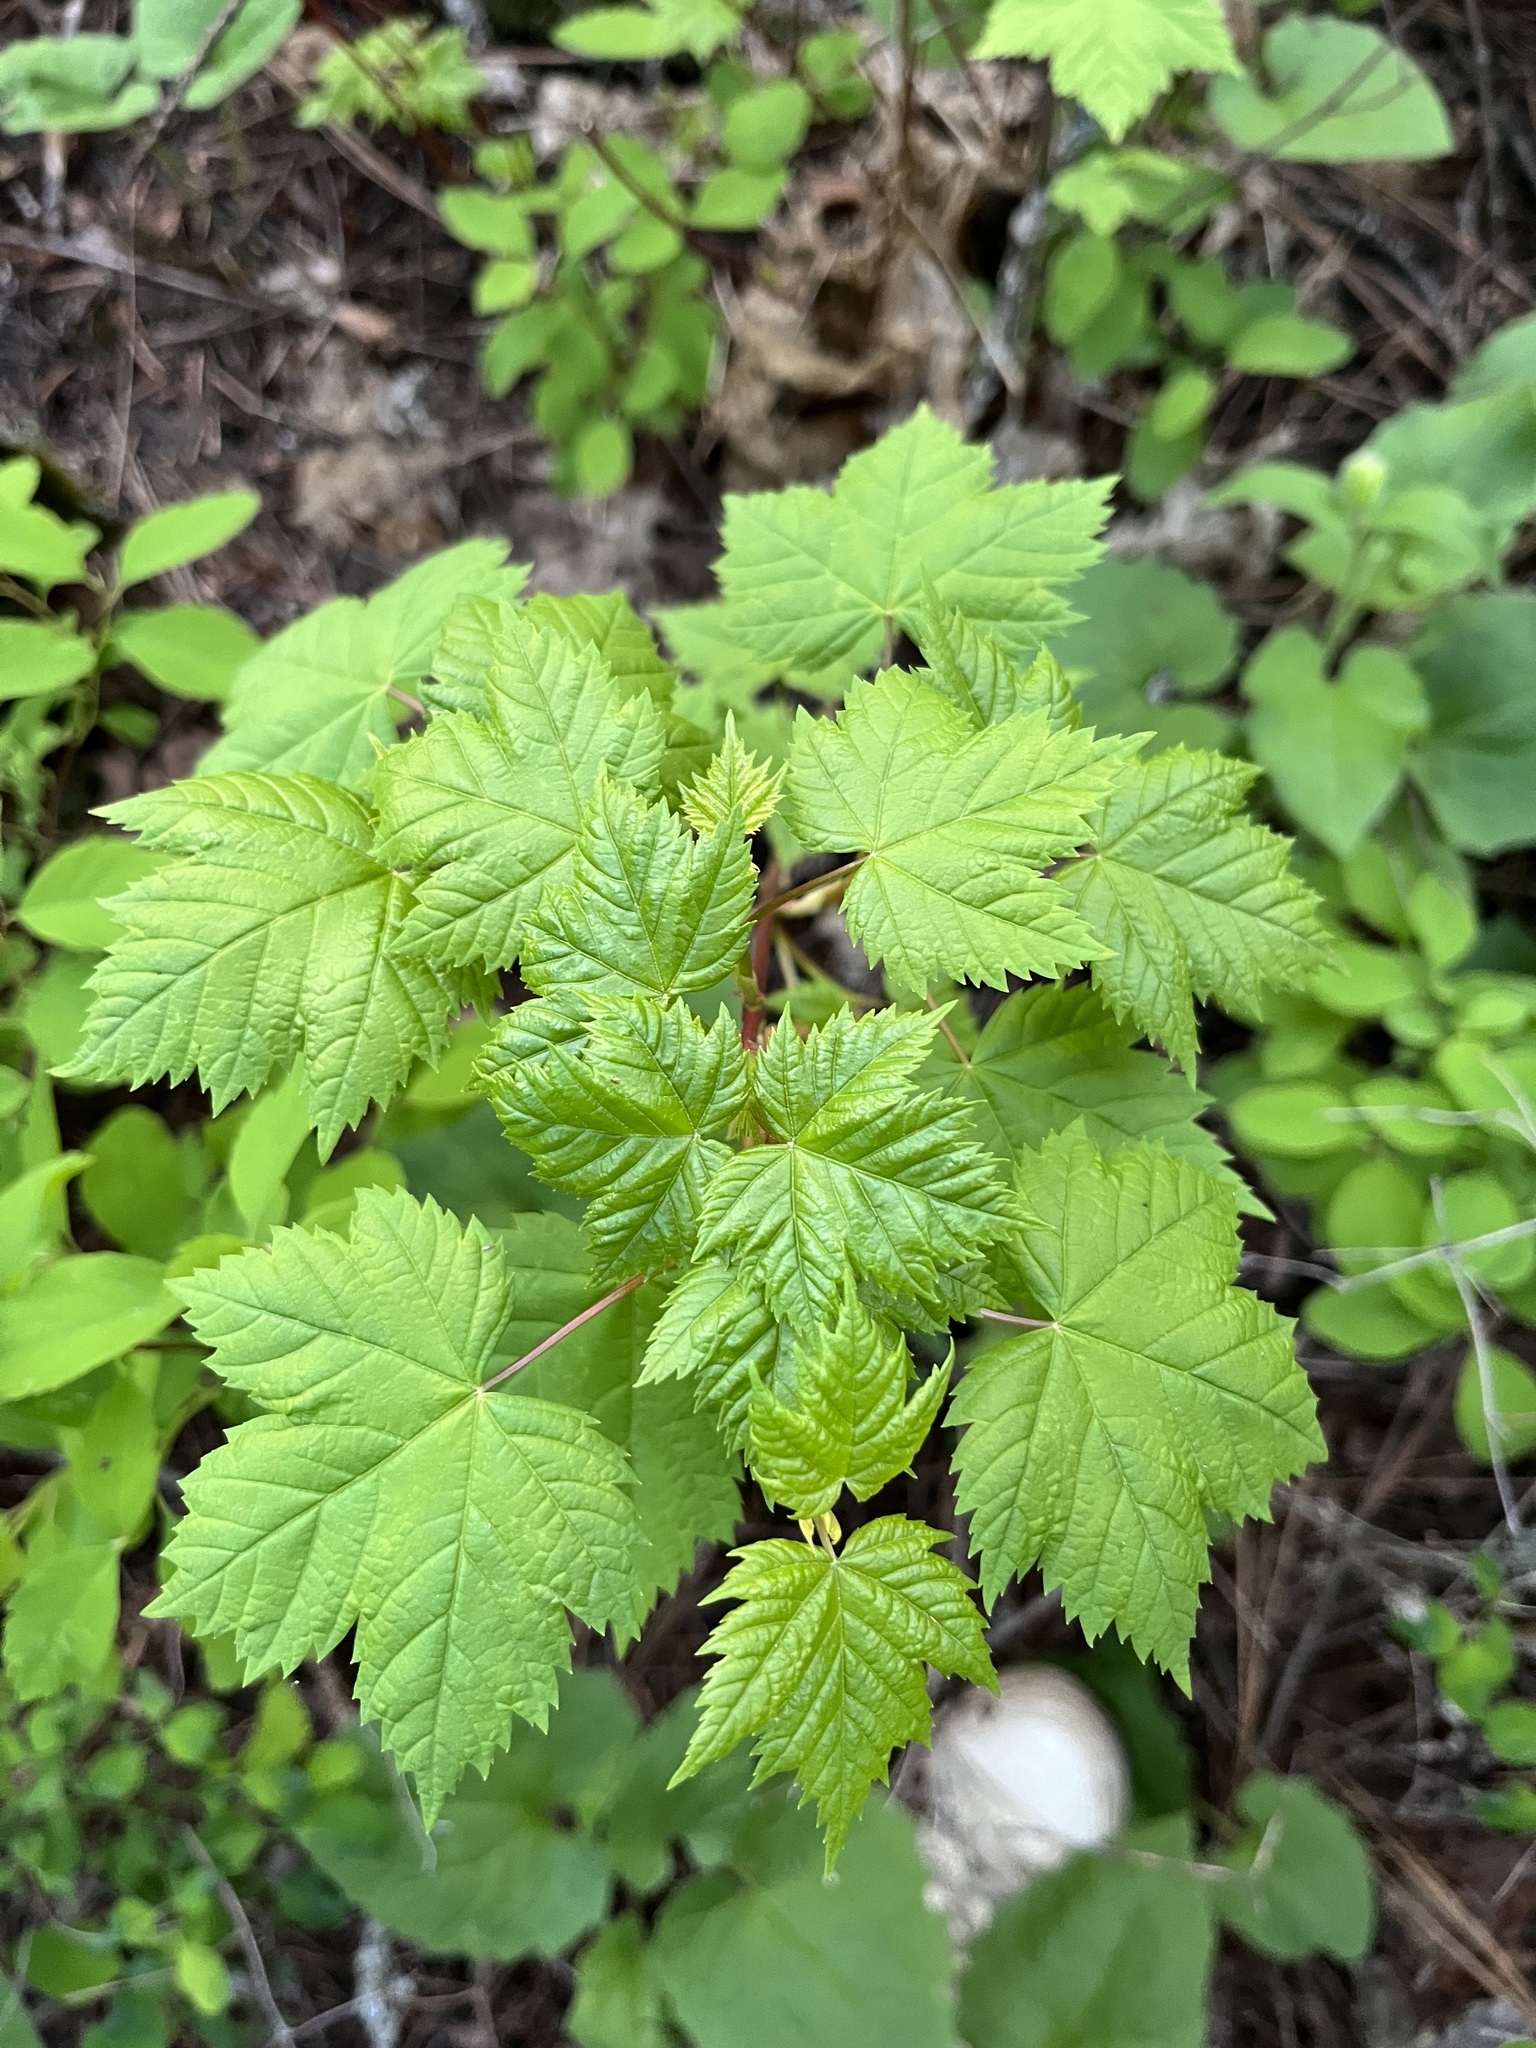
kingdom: Plantae
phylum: Tracheophyta
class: Magnoliopsida
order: Sapindales
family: Sapindaceae
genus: Acer
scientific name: Acer glabrum
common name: Rocky mountain maple
